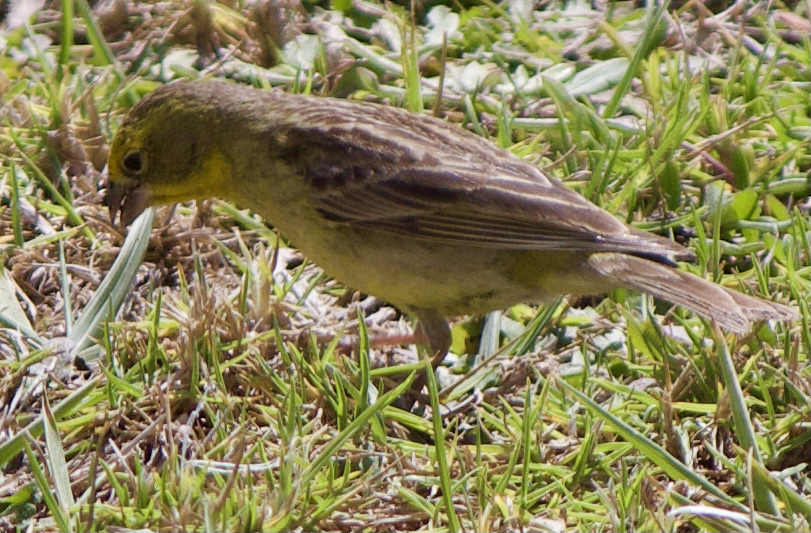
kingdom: Animalia
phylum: Chordata
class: Aves
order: Passeriformes
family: Thraupidae
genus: Sicalis
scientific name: Sicalis luteola
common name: Grassland yellow-finch
